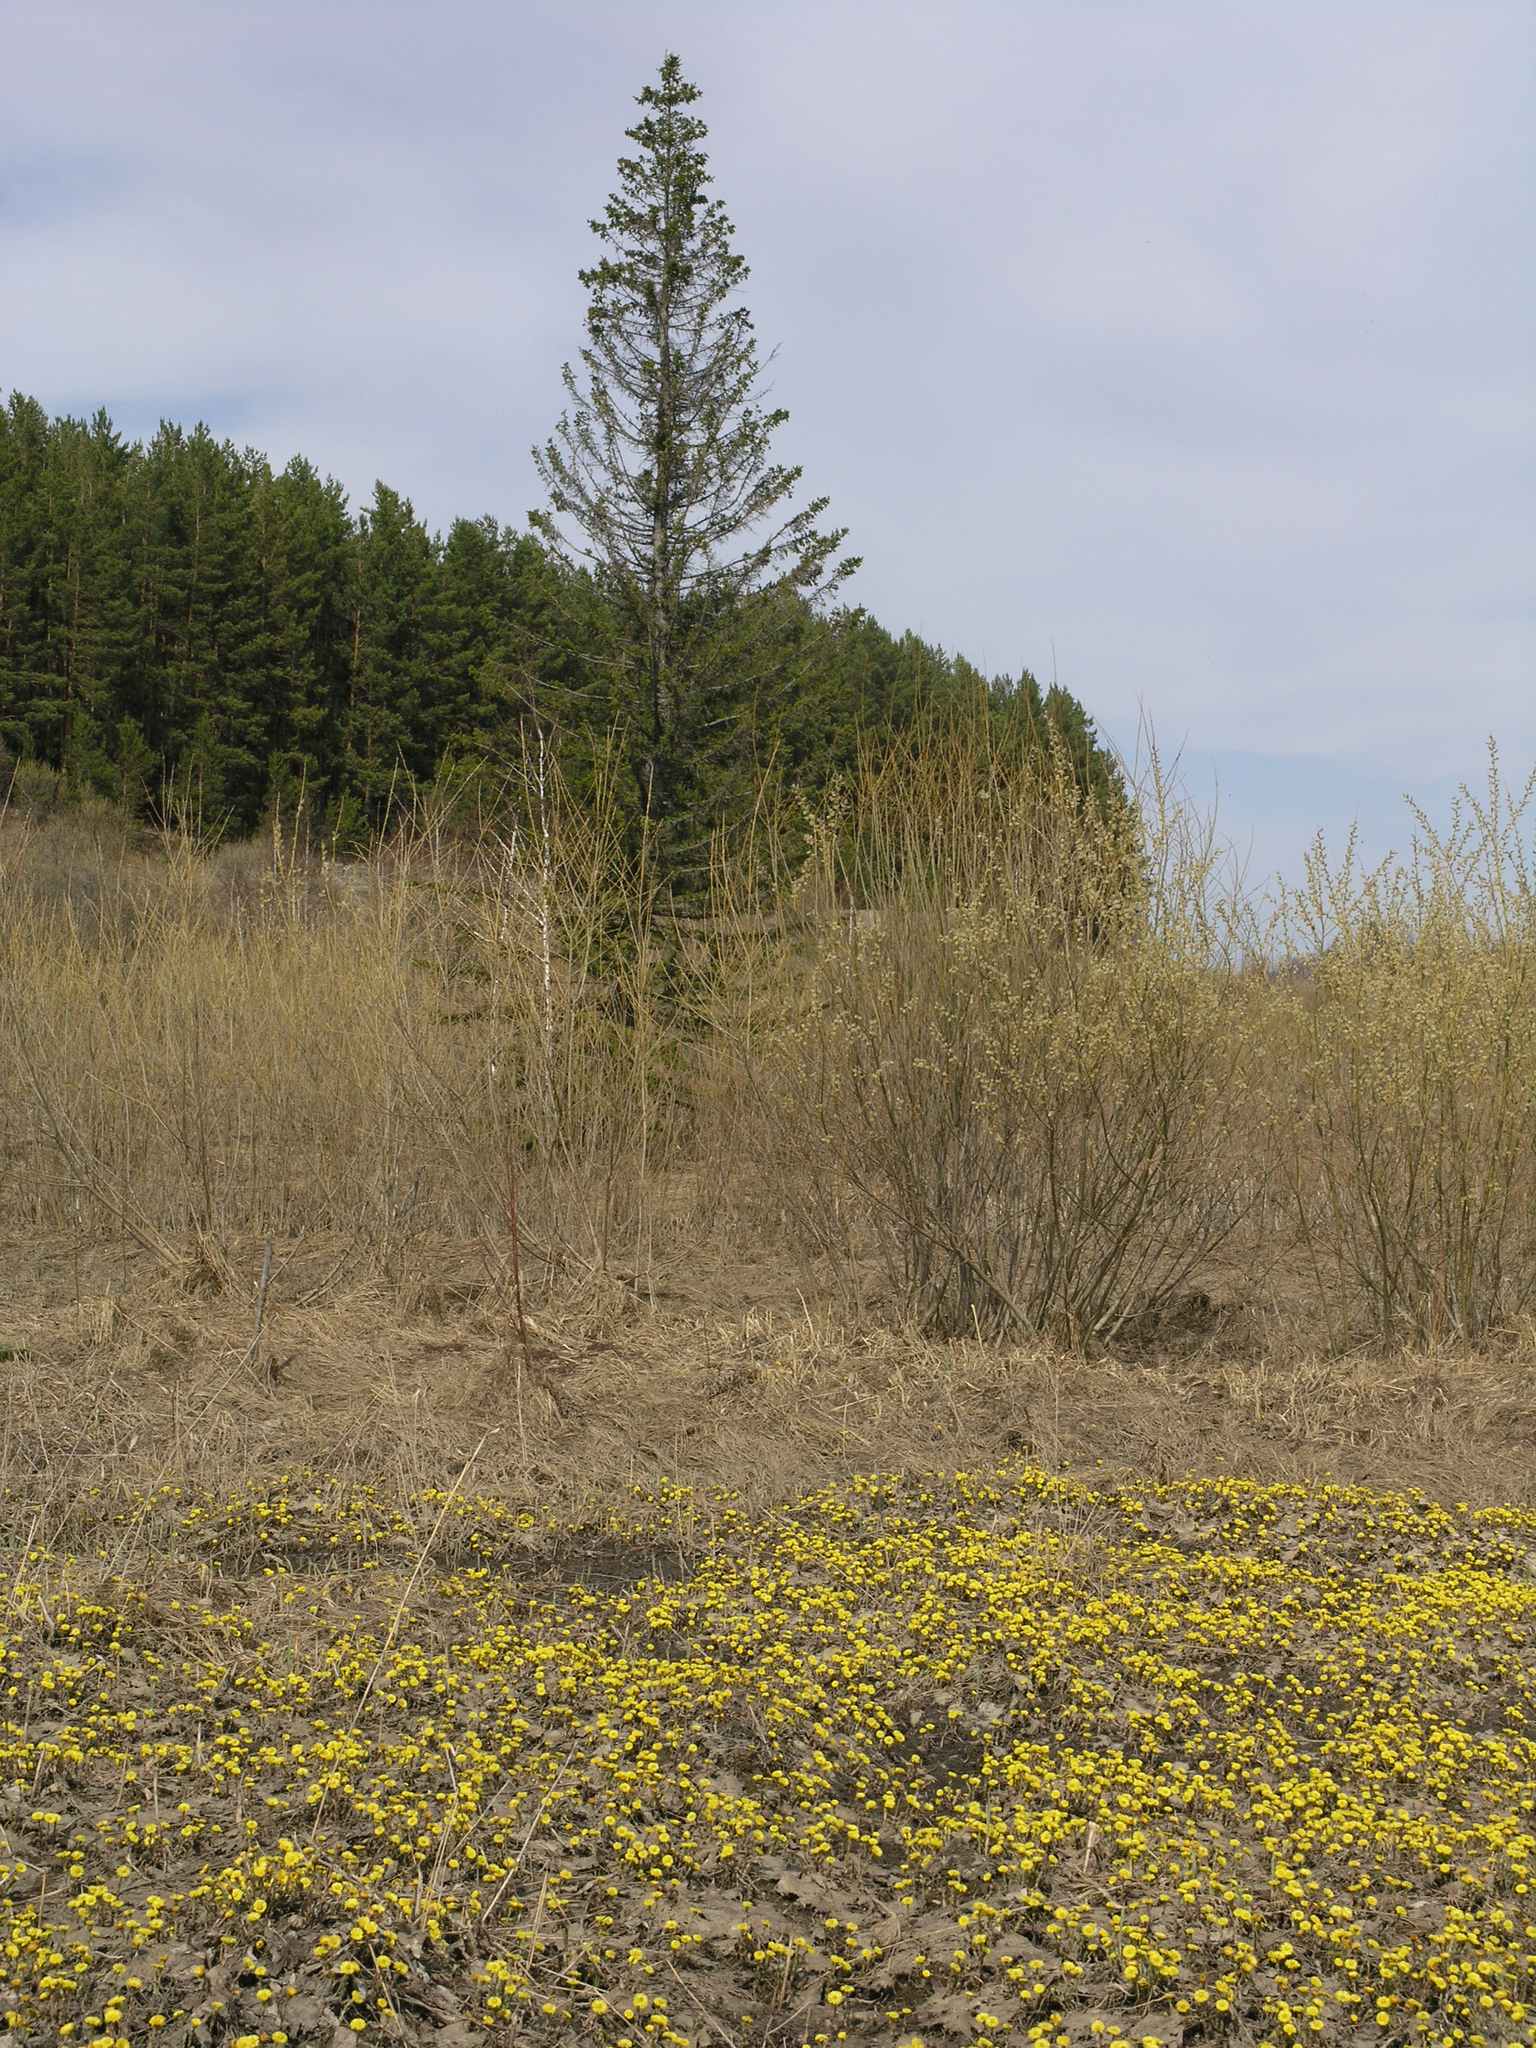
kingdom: Plantae
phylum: Tracheophyta
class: Magnoliopsida
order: Asterales
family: Asteraceae
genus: Tussilago
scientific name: Tussilago farfara
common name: Coltsfoot
